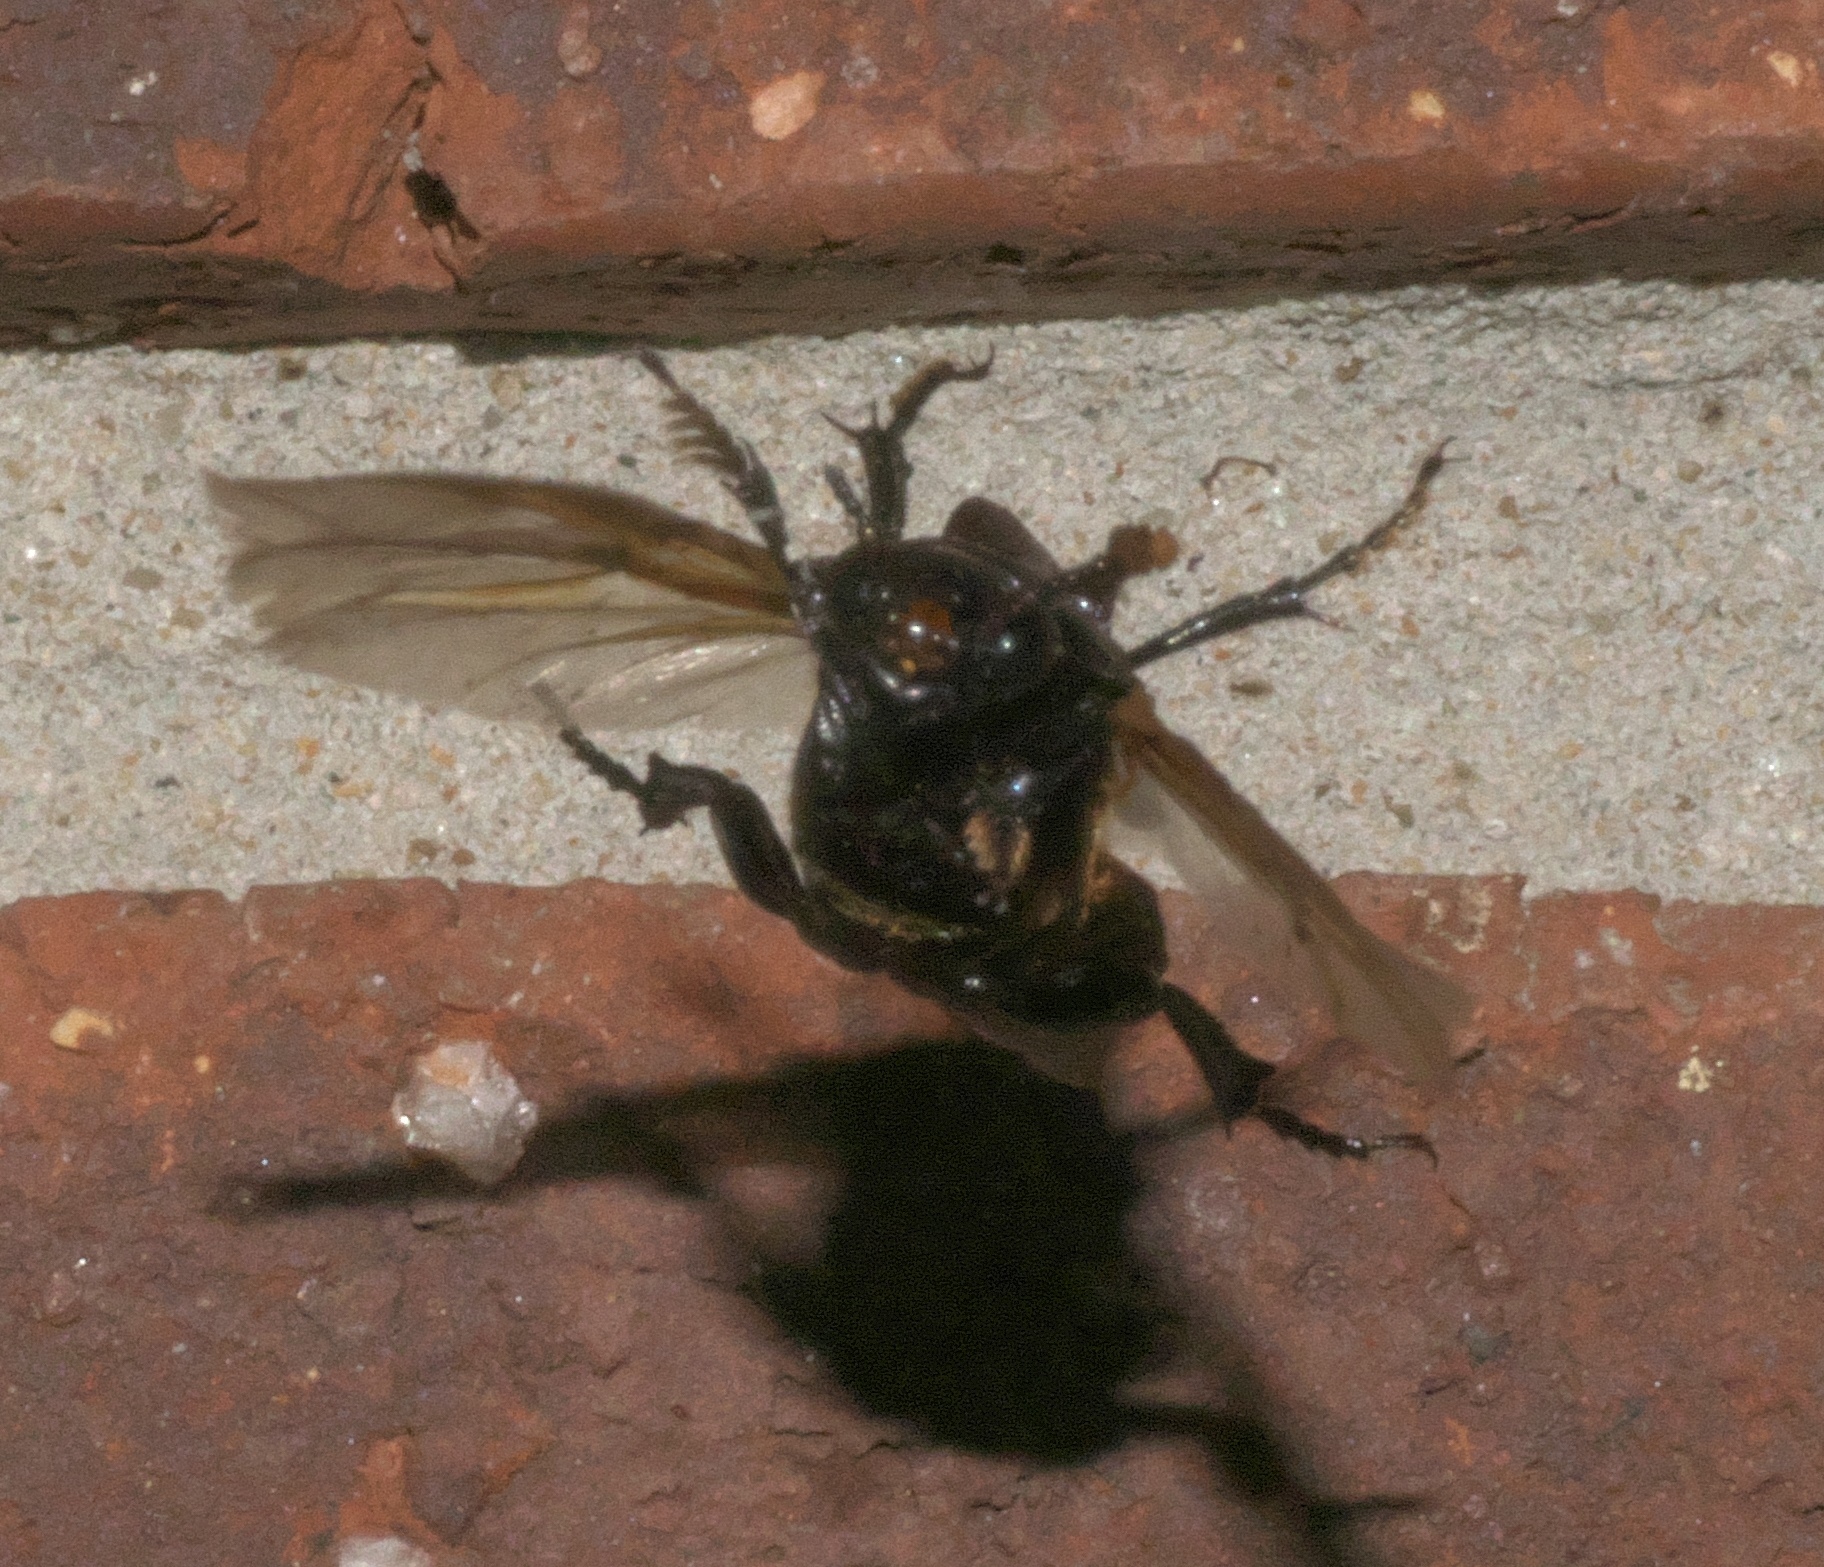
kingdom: Animalia
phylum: Arthropoda
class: Insecta
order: Coleoptera
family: Staphylinidae
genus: Nicrophorus
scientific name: Nicrophorus pustulatus
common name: Pustulated carrion beetle
